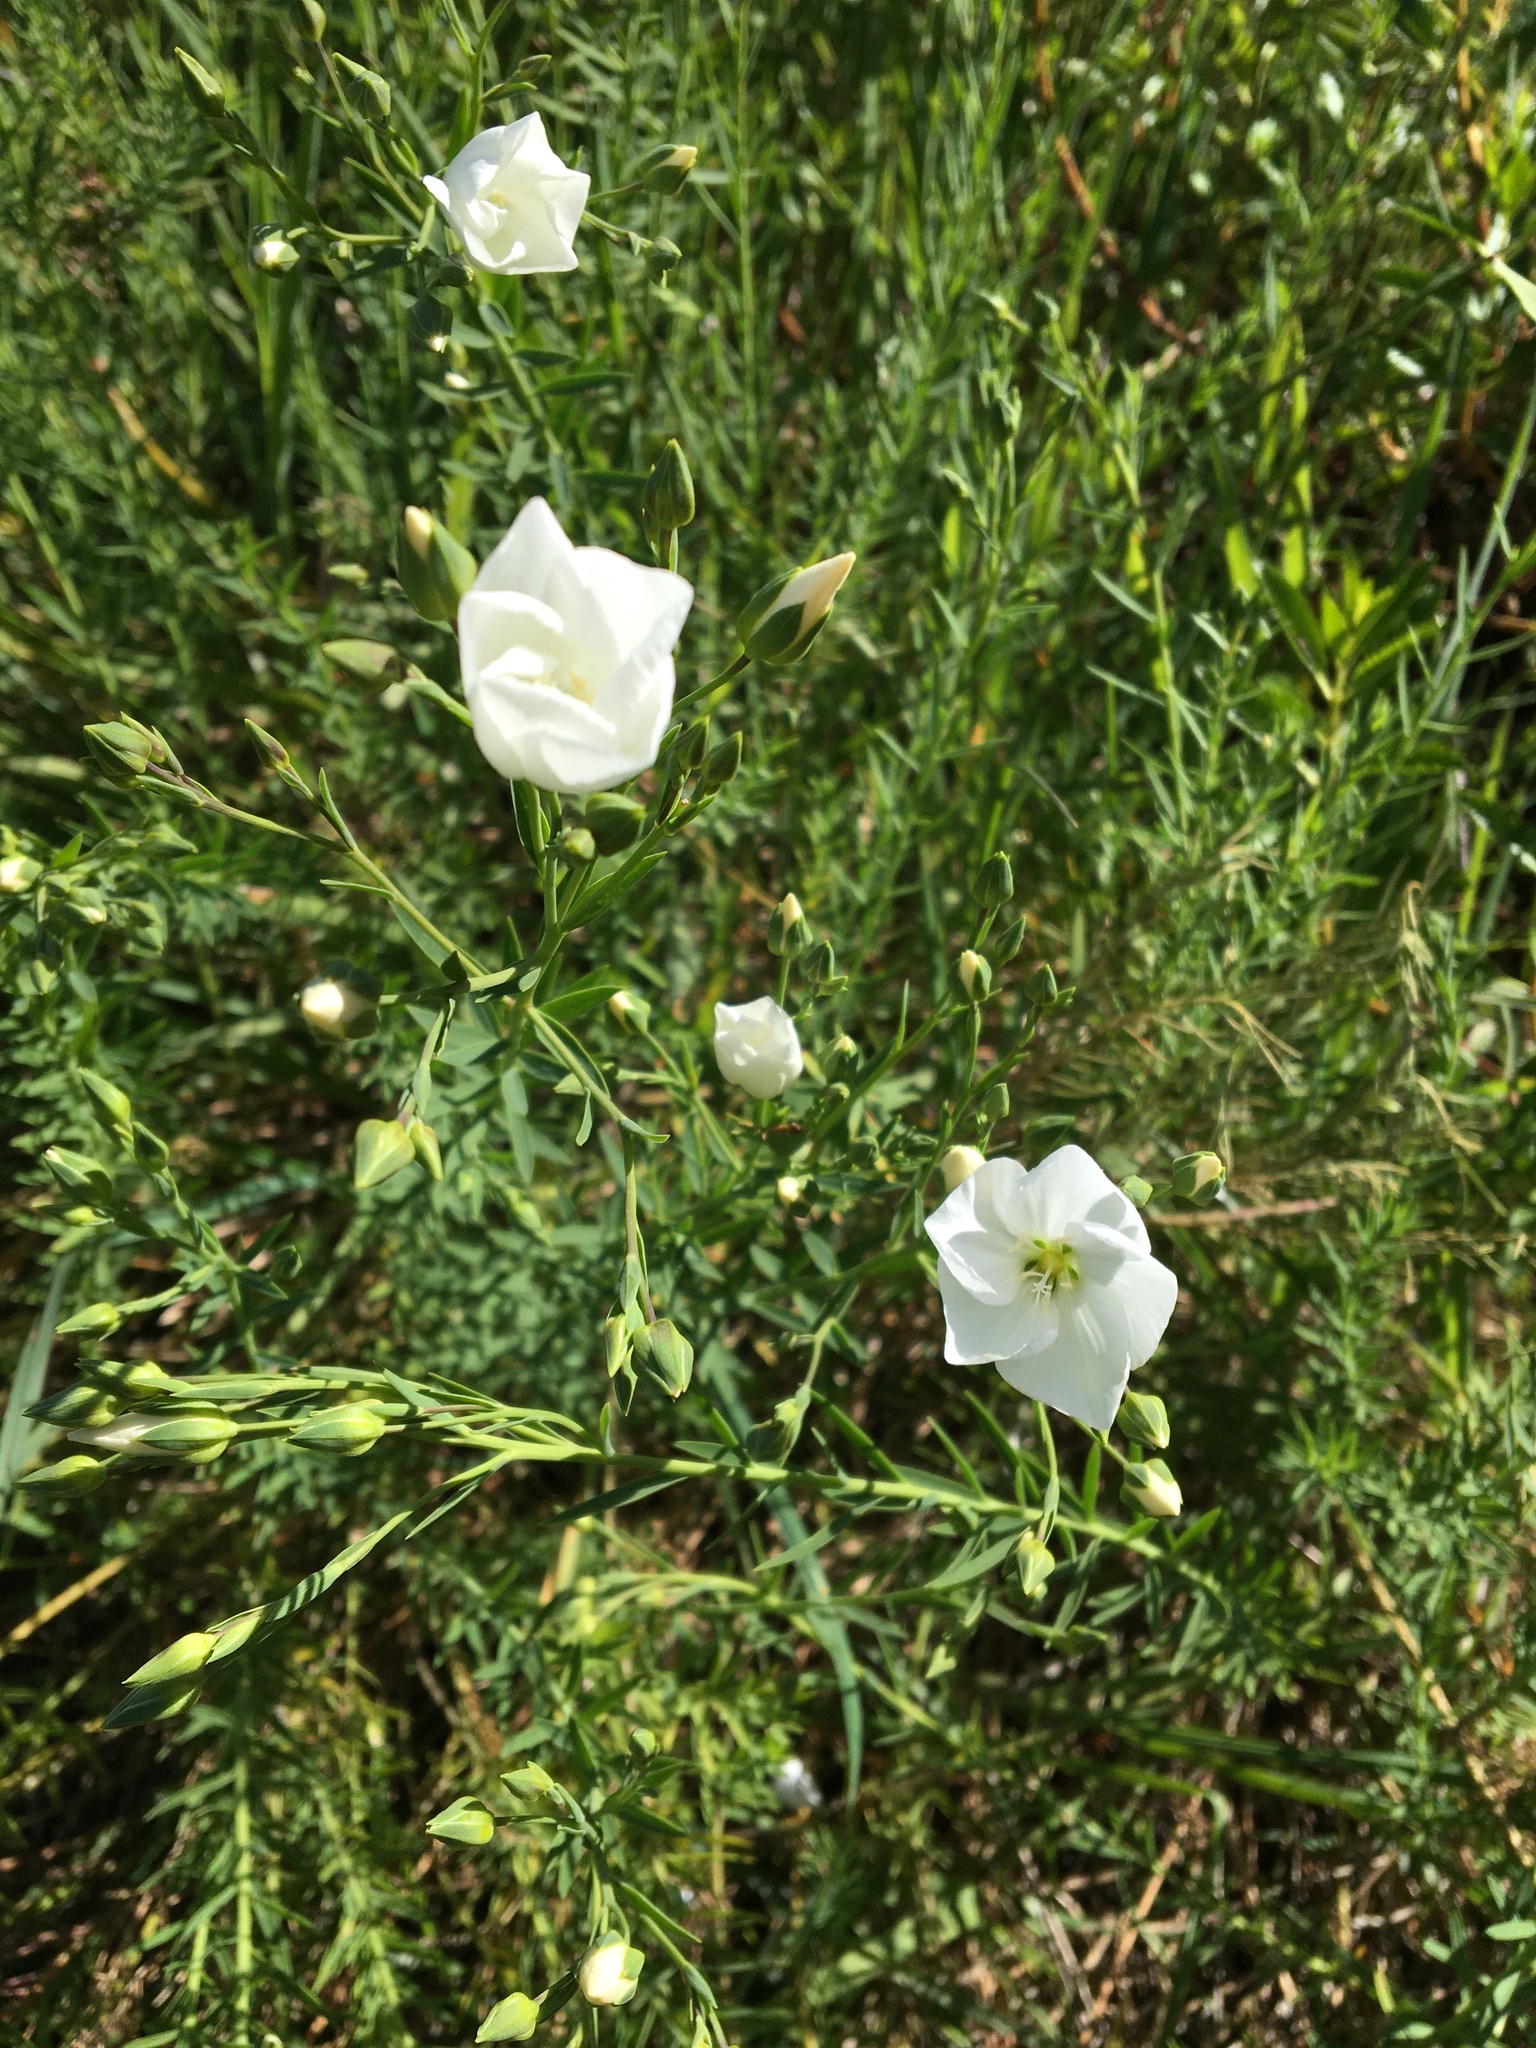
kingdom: Plantae
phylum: Tracheophyta
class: Magnoliopsida
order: Malpighiales
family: Linaceae
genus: Linum
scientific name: Linum monogynum
